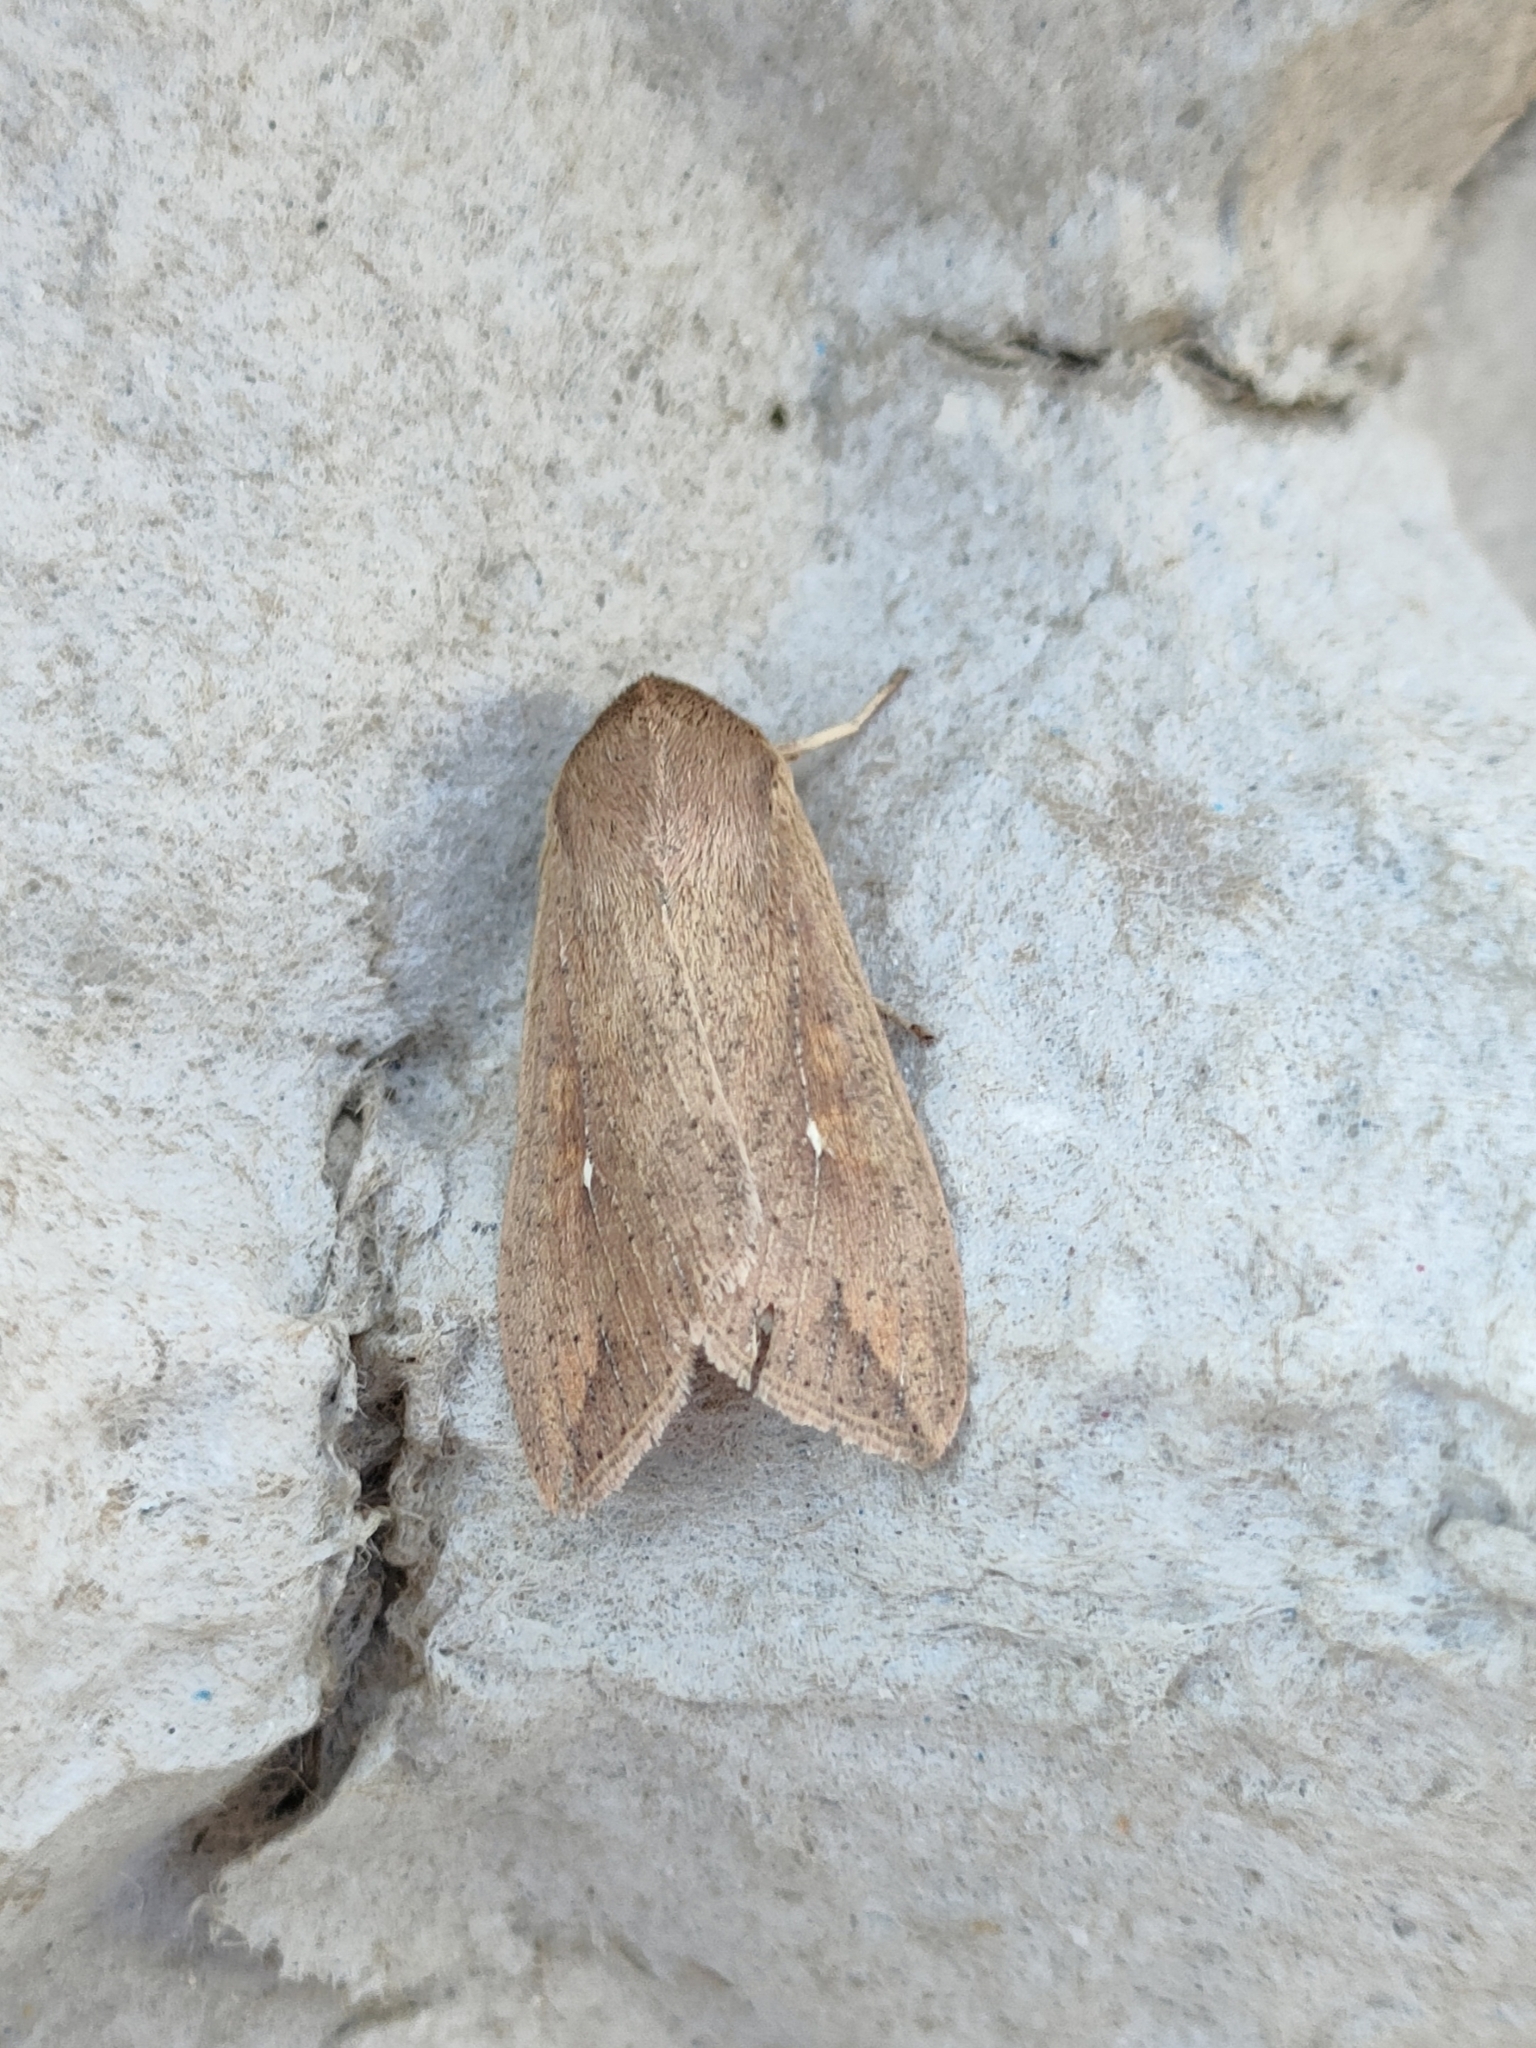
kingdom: Animalia
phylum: Arthropoda
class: Insecta
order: Lepidoptera
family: Noctuidae
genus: Mythimna
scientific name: Mythimna unipuncta
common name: White-speck
